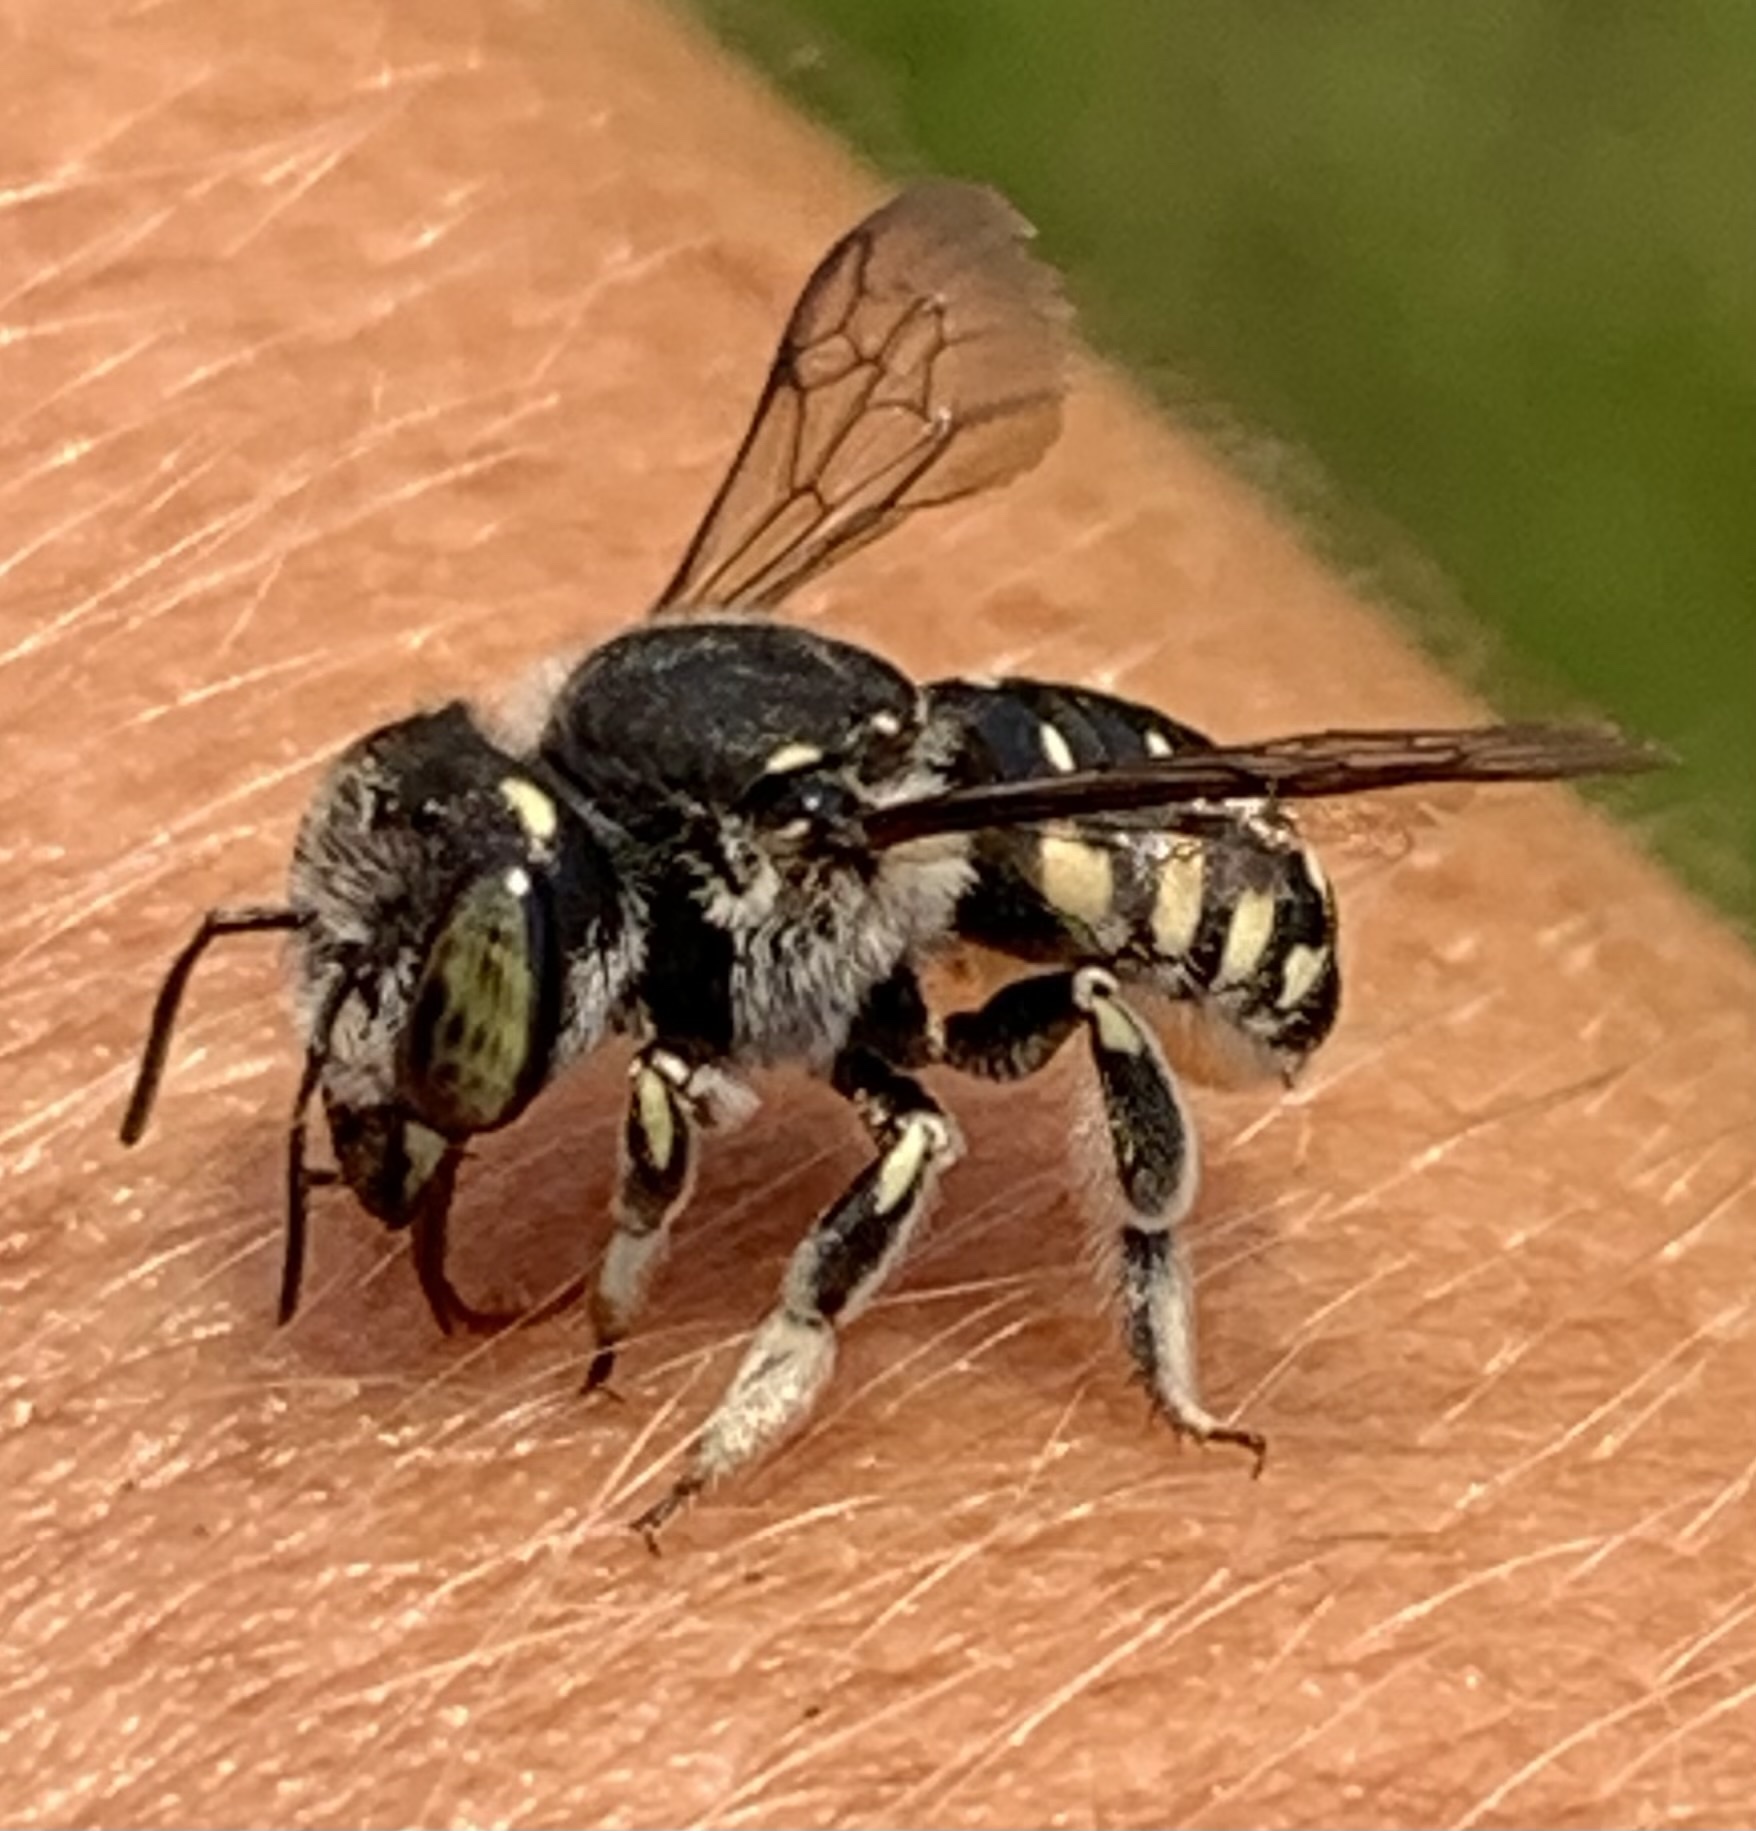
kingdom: Animalia
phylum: Arthropoda
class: Insecta
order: Hymenoptera
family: Megachilidae
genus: Anthidium
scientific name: Anthidium maculifrons
